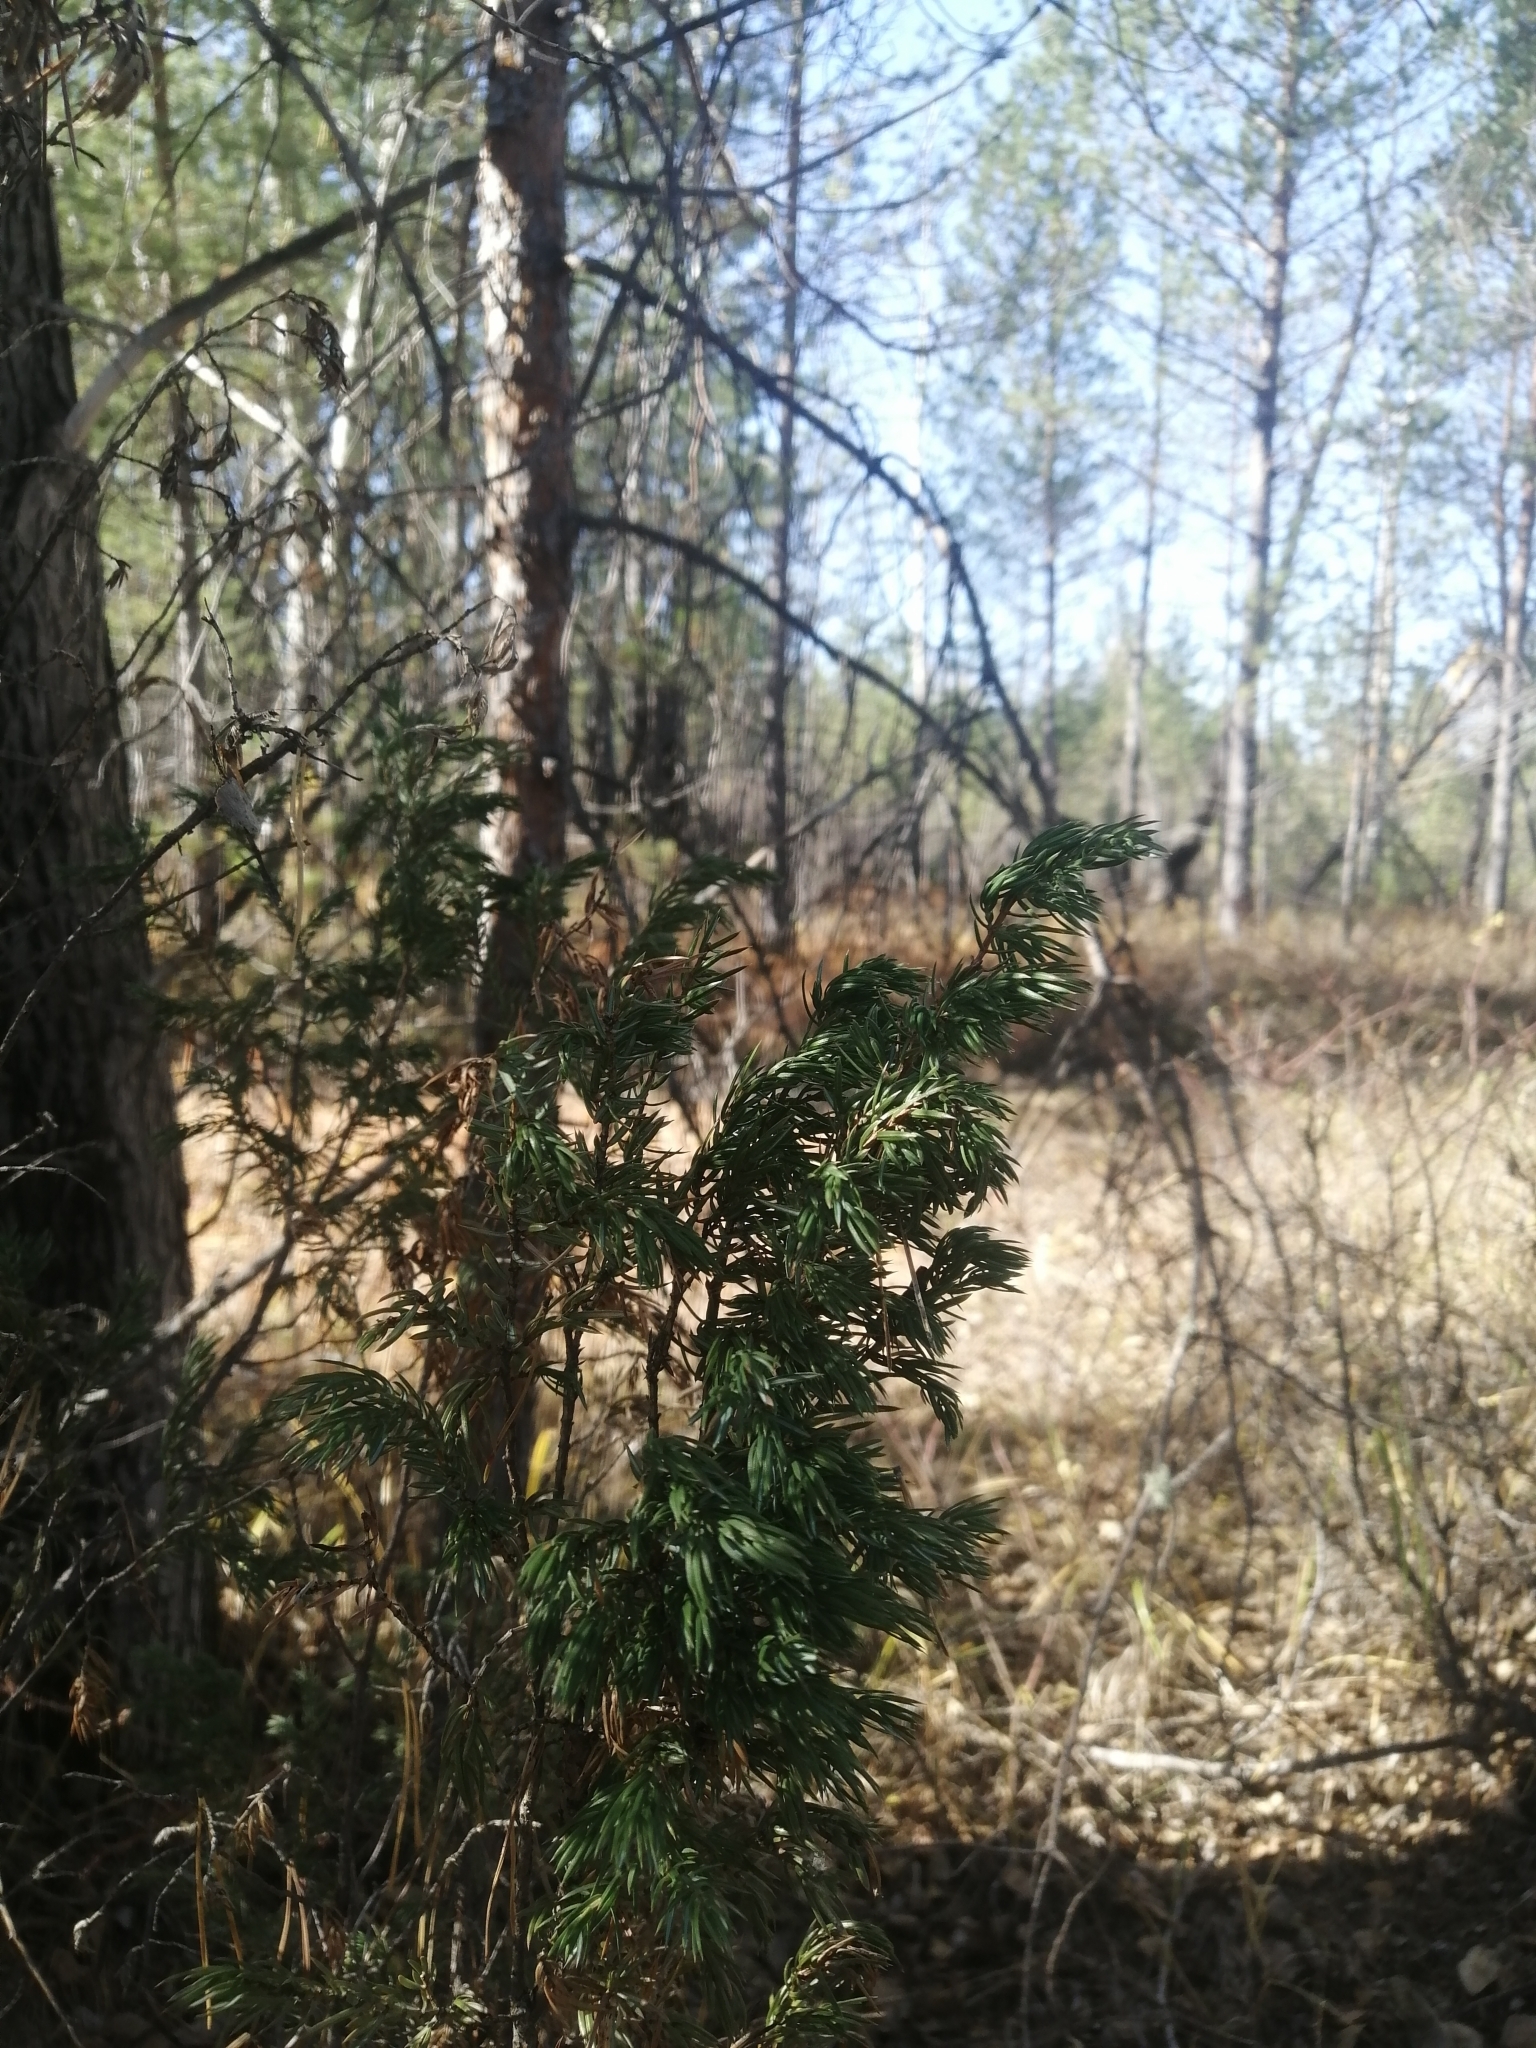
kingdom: Plantae
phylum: Tracheophyta
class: Pinopsida
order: Pinales
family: Cupressaceae
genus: Juniperus
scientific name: Juniperus communis
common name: Common juniper
